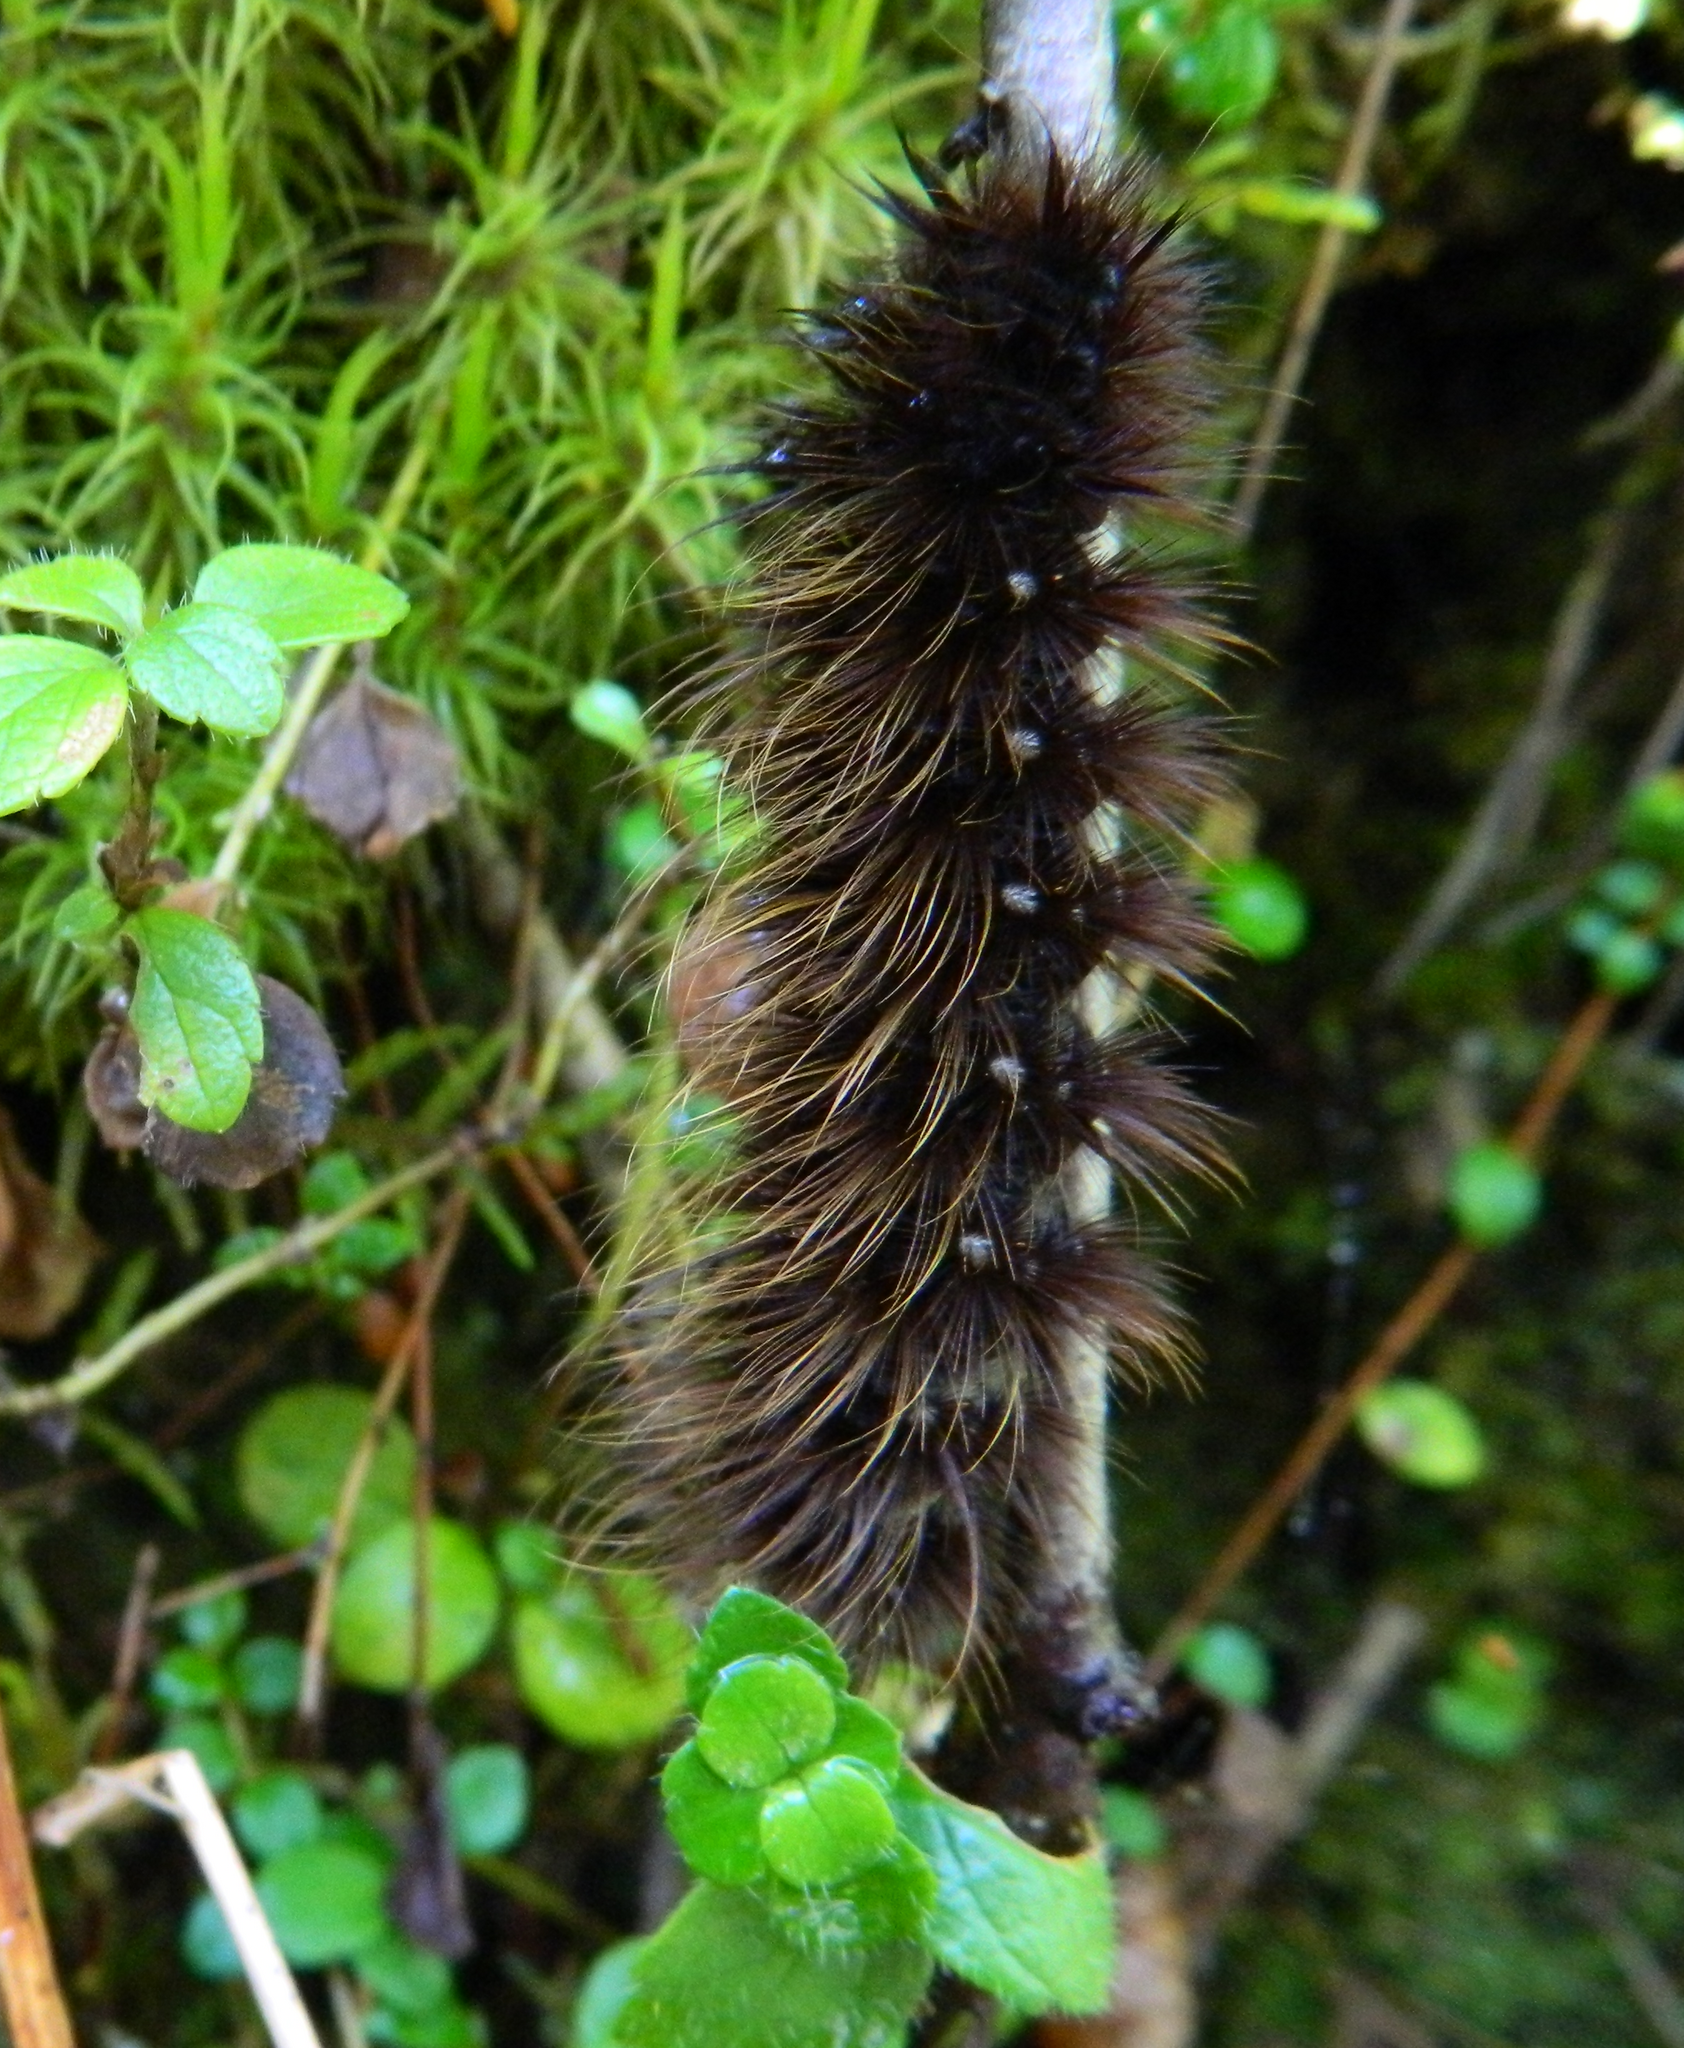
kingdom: Animalia
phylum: Arthropoda
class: Insecta
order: Lepidoptera
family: Erebidae
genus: Arctia
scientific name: Arctia parthenos
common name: St. lawrence tiger moth
